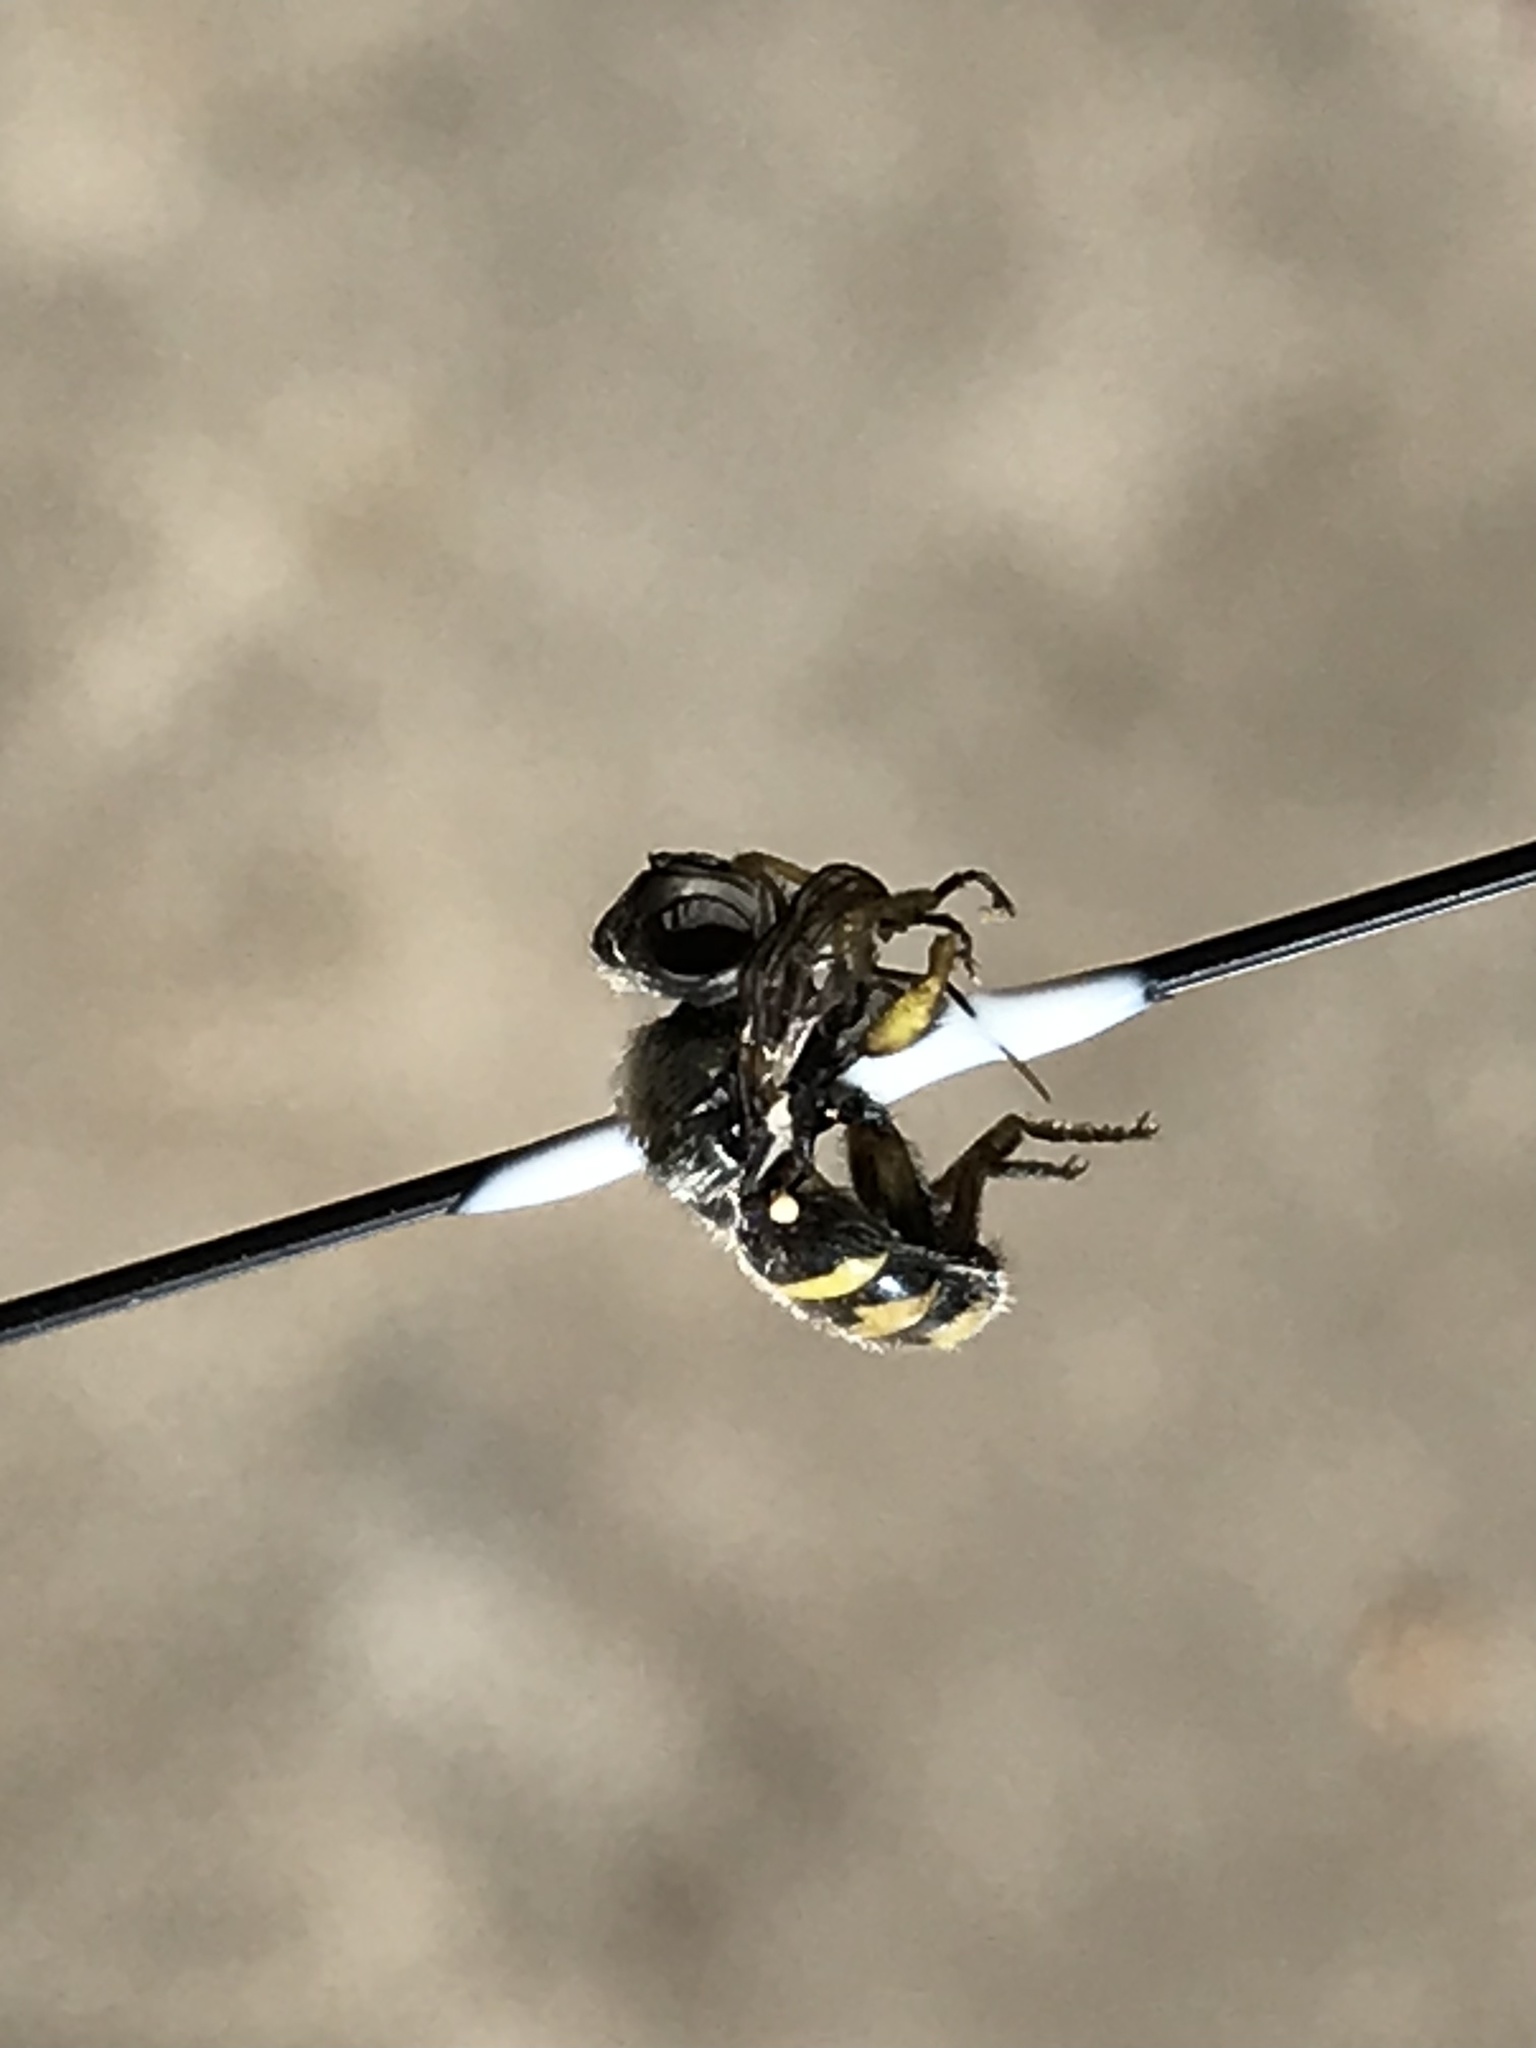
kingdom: Animalia
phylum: Arthropoda
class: Insecta
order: Diptera
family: Conopidae
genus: Dalmannia
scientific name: Dalmannia heterotricha
